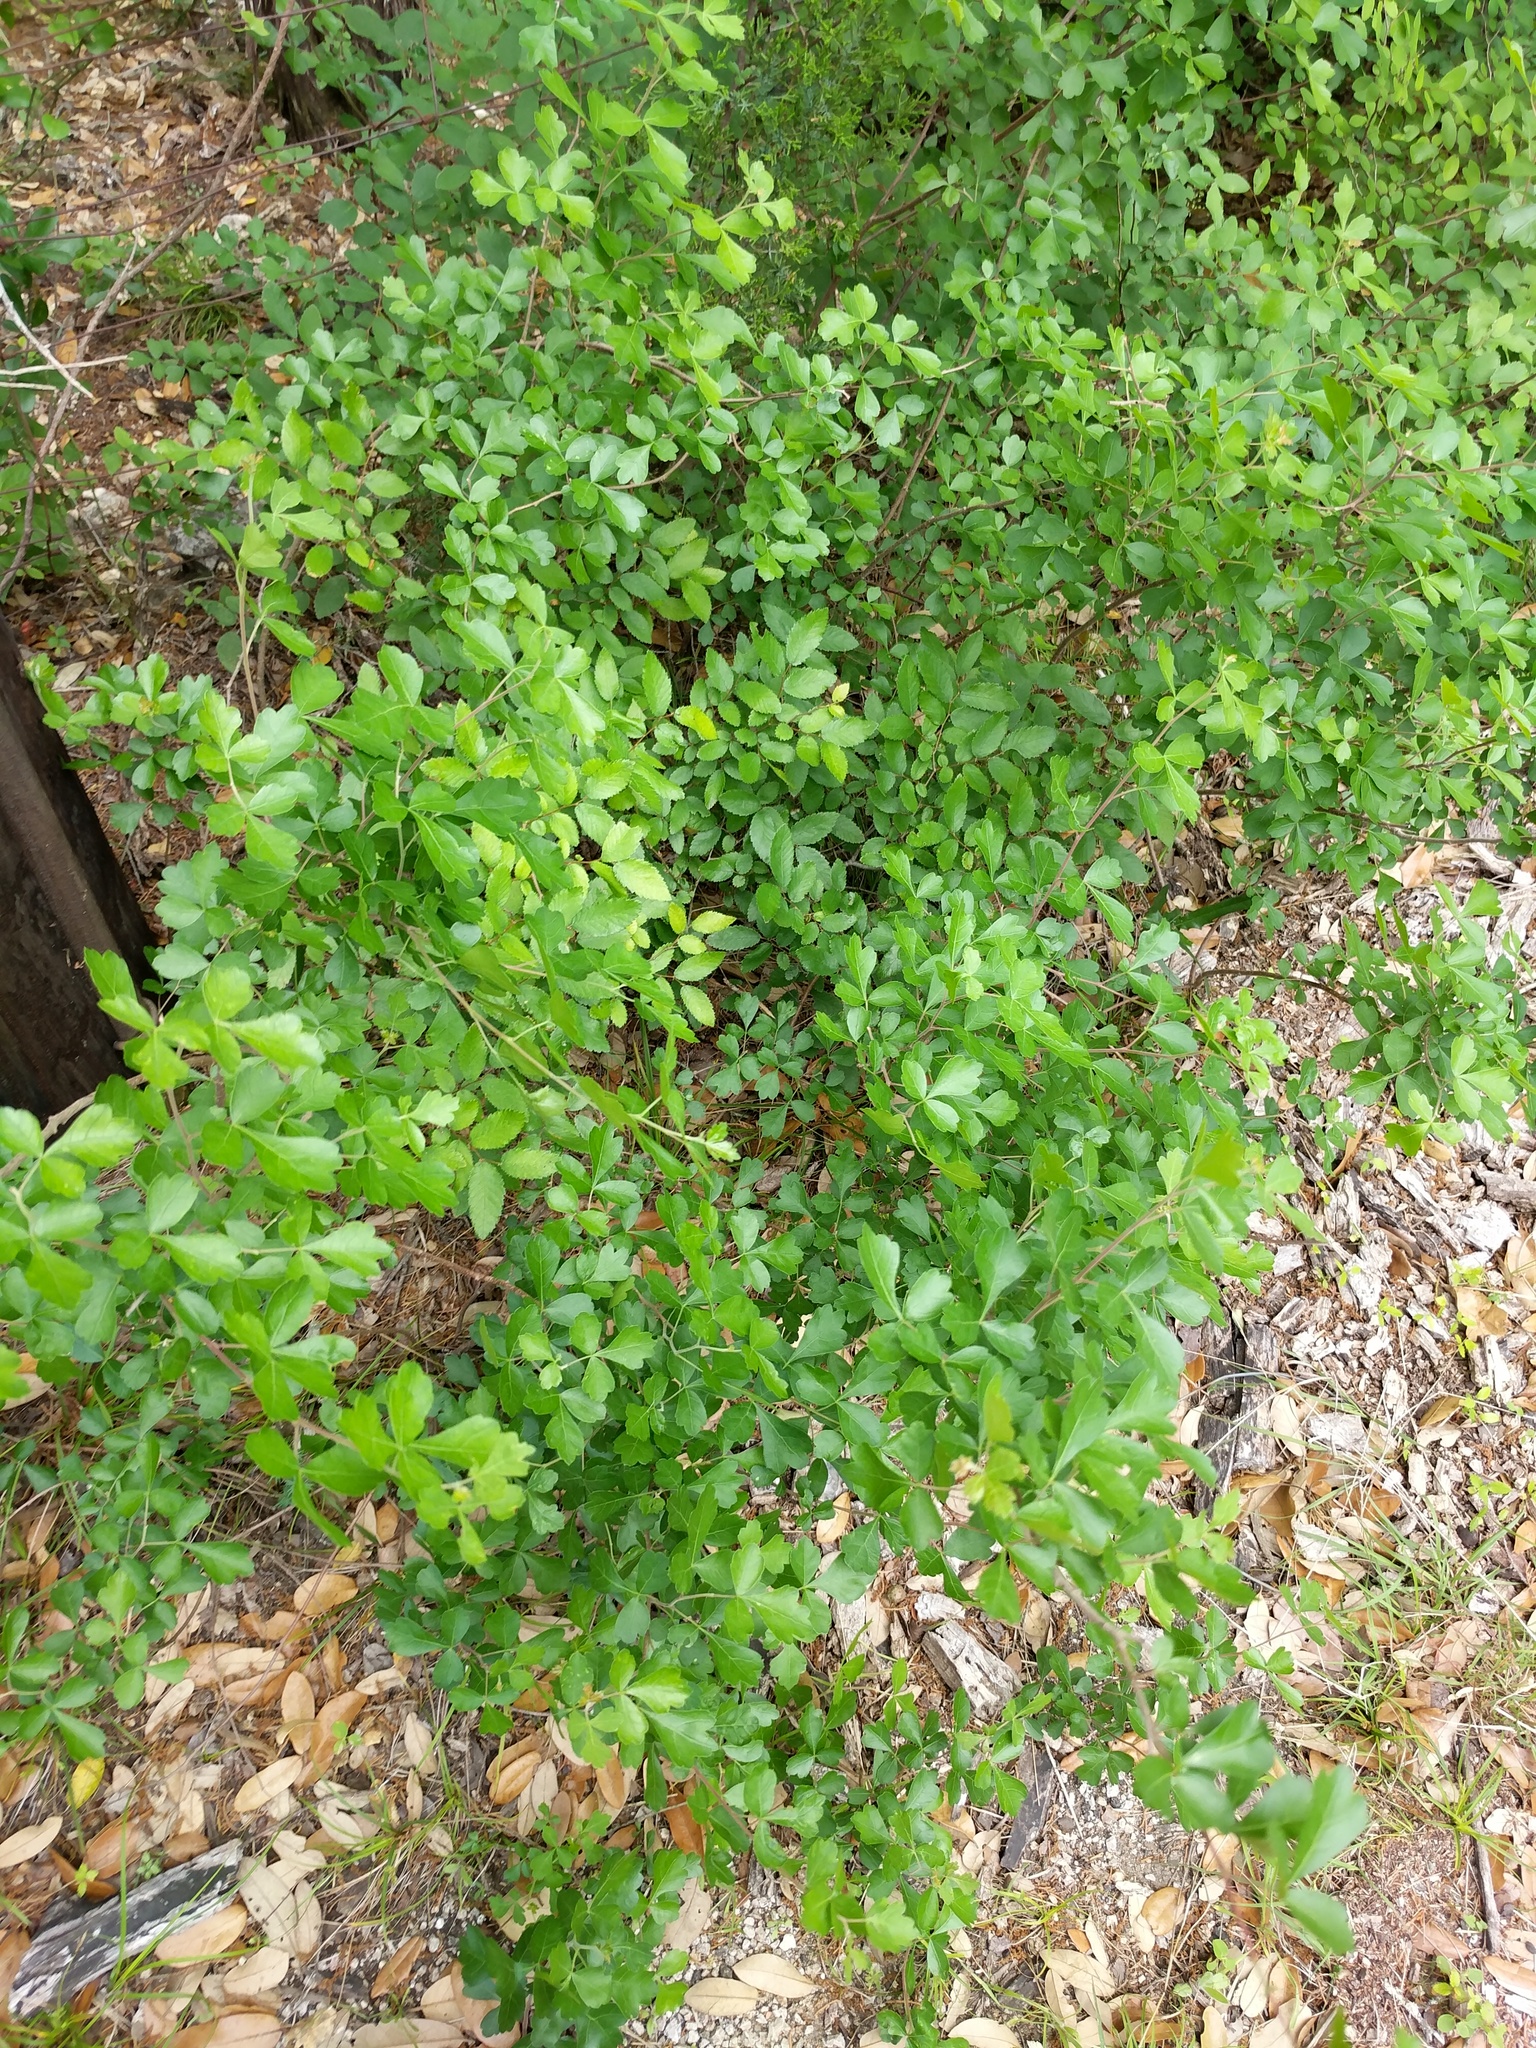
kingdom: Plantae
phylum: Tracheophyta
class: Magnoliopsida
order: Sapindales
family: Anacardiaceae
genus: Rhus
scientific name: Rhus aromatica
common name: Aromatic sumac
